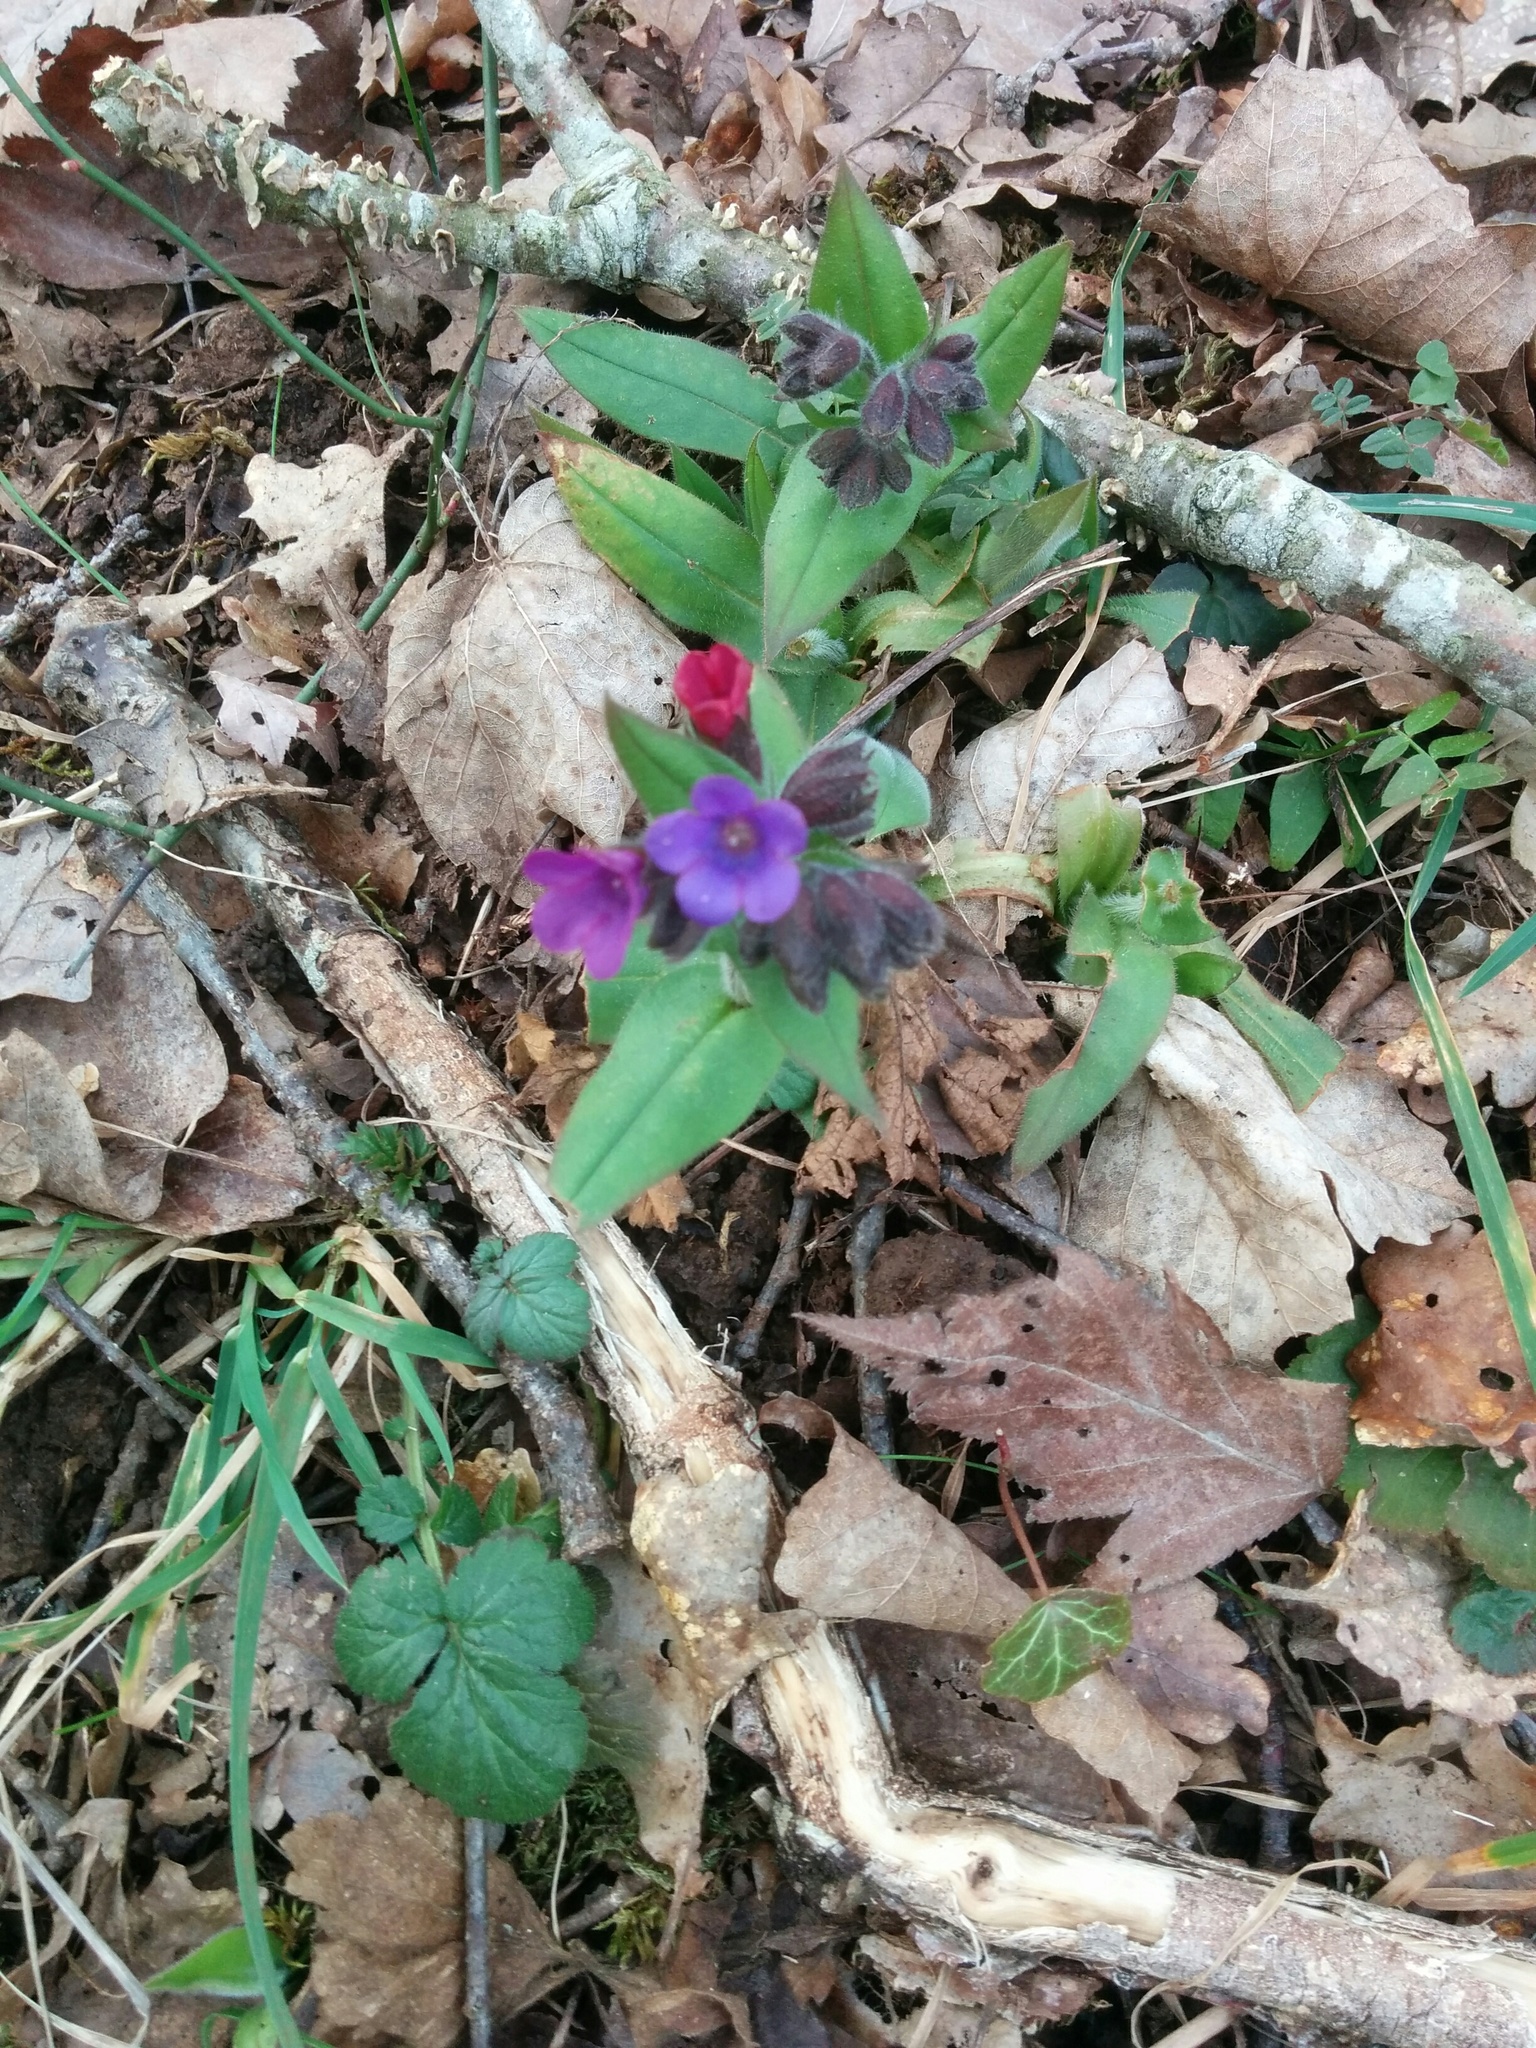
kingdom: Plantae
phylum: Tracheophyta
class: Magnoliopsida
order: Boraginales
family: Boraginaceae
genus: Pulmonaria
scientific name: Pulmonaria obscura
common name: Suffolk lungwort
